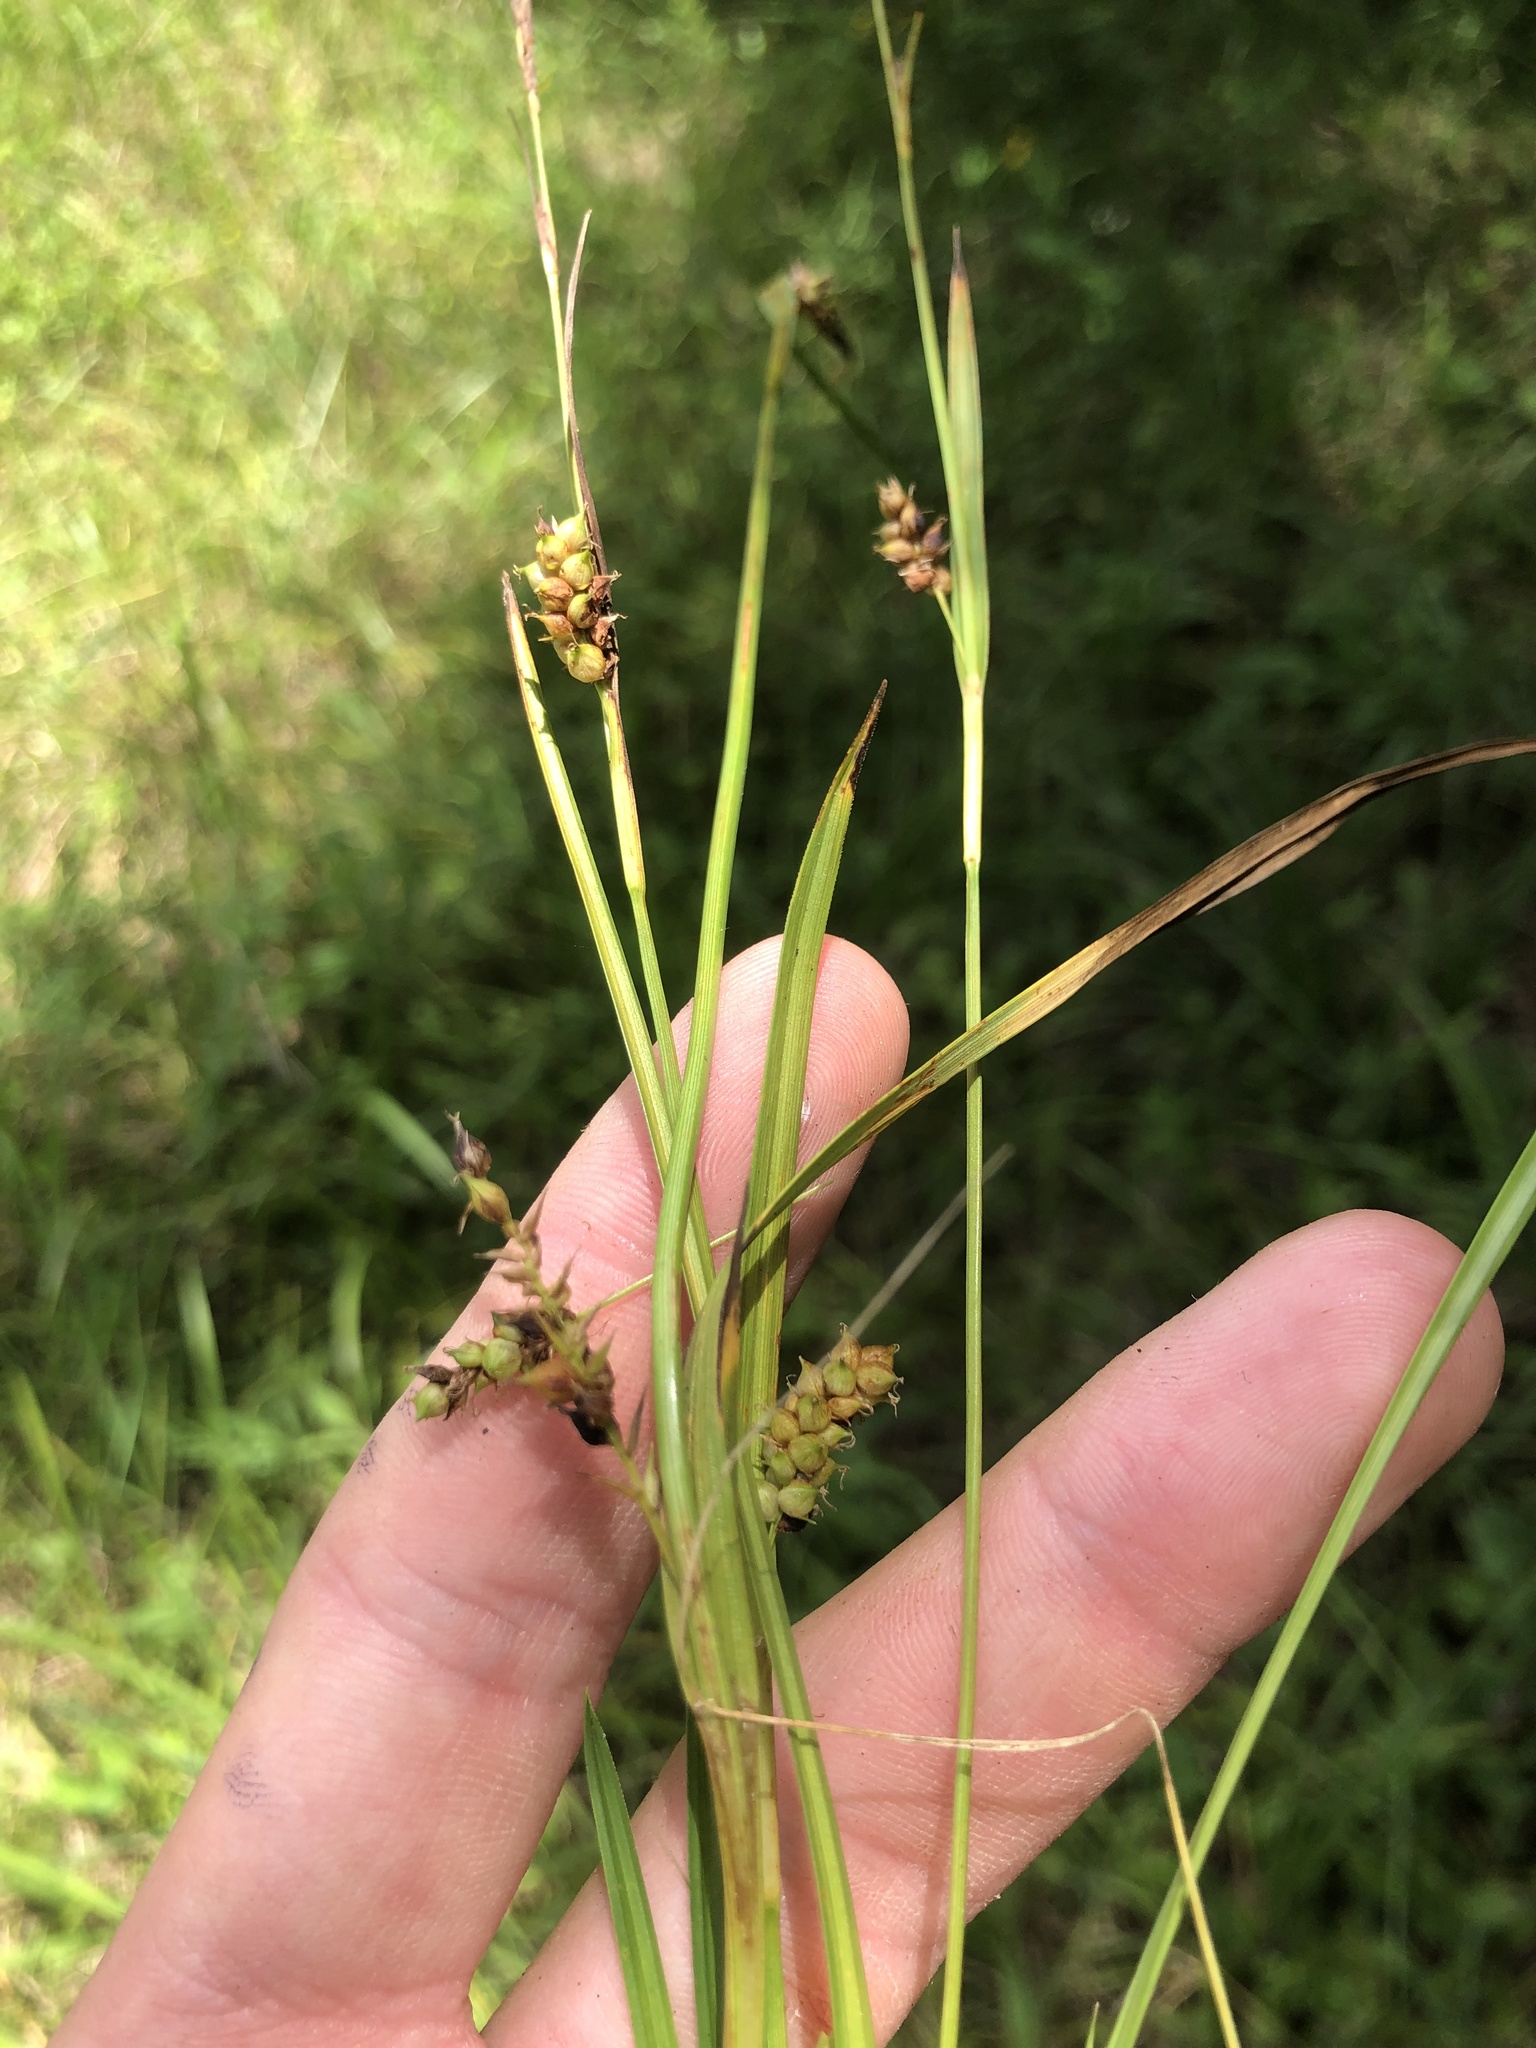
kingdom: Plantae
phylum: Tracheophyta
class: Liliopsida
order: Poales
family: Cyperaceae
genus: Carex
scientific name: Carex microdonta
